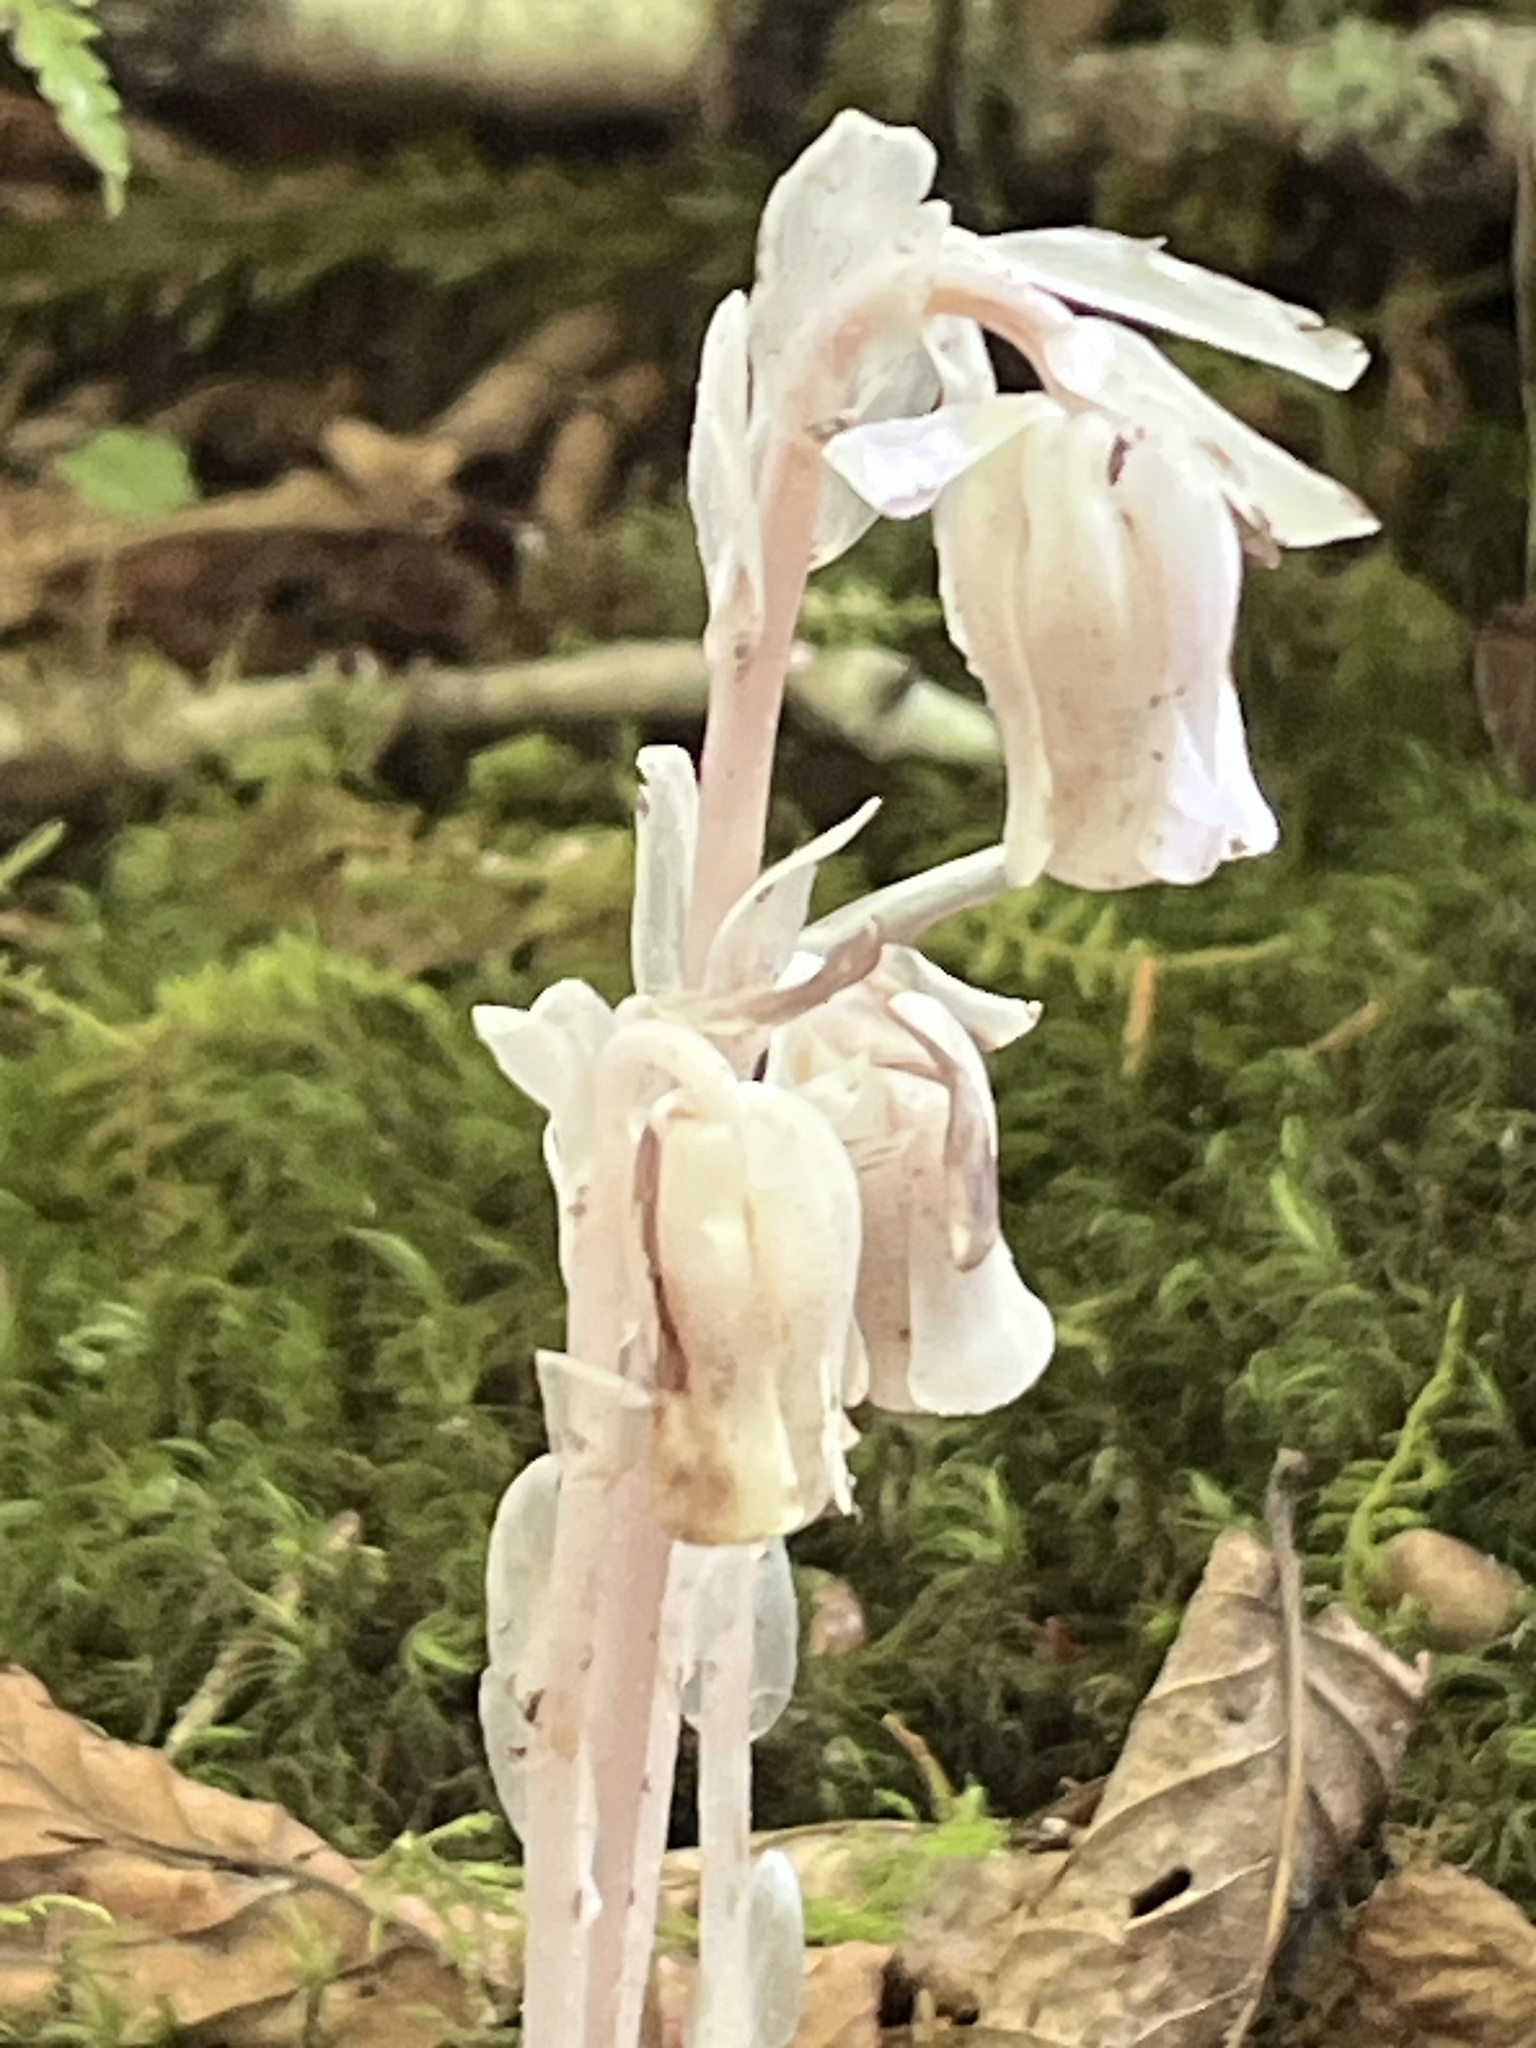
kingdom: Plantae
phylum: Tracheophyta
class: Magnoliopsida
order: Ericales
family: Ericaceae
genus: Monotropa
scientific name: Monotropa uniflora
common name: Convulsion root
